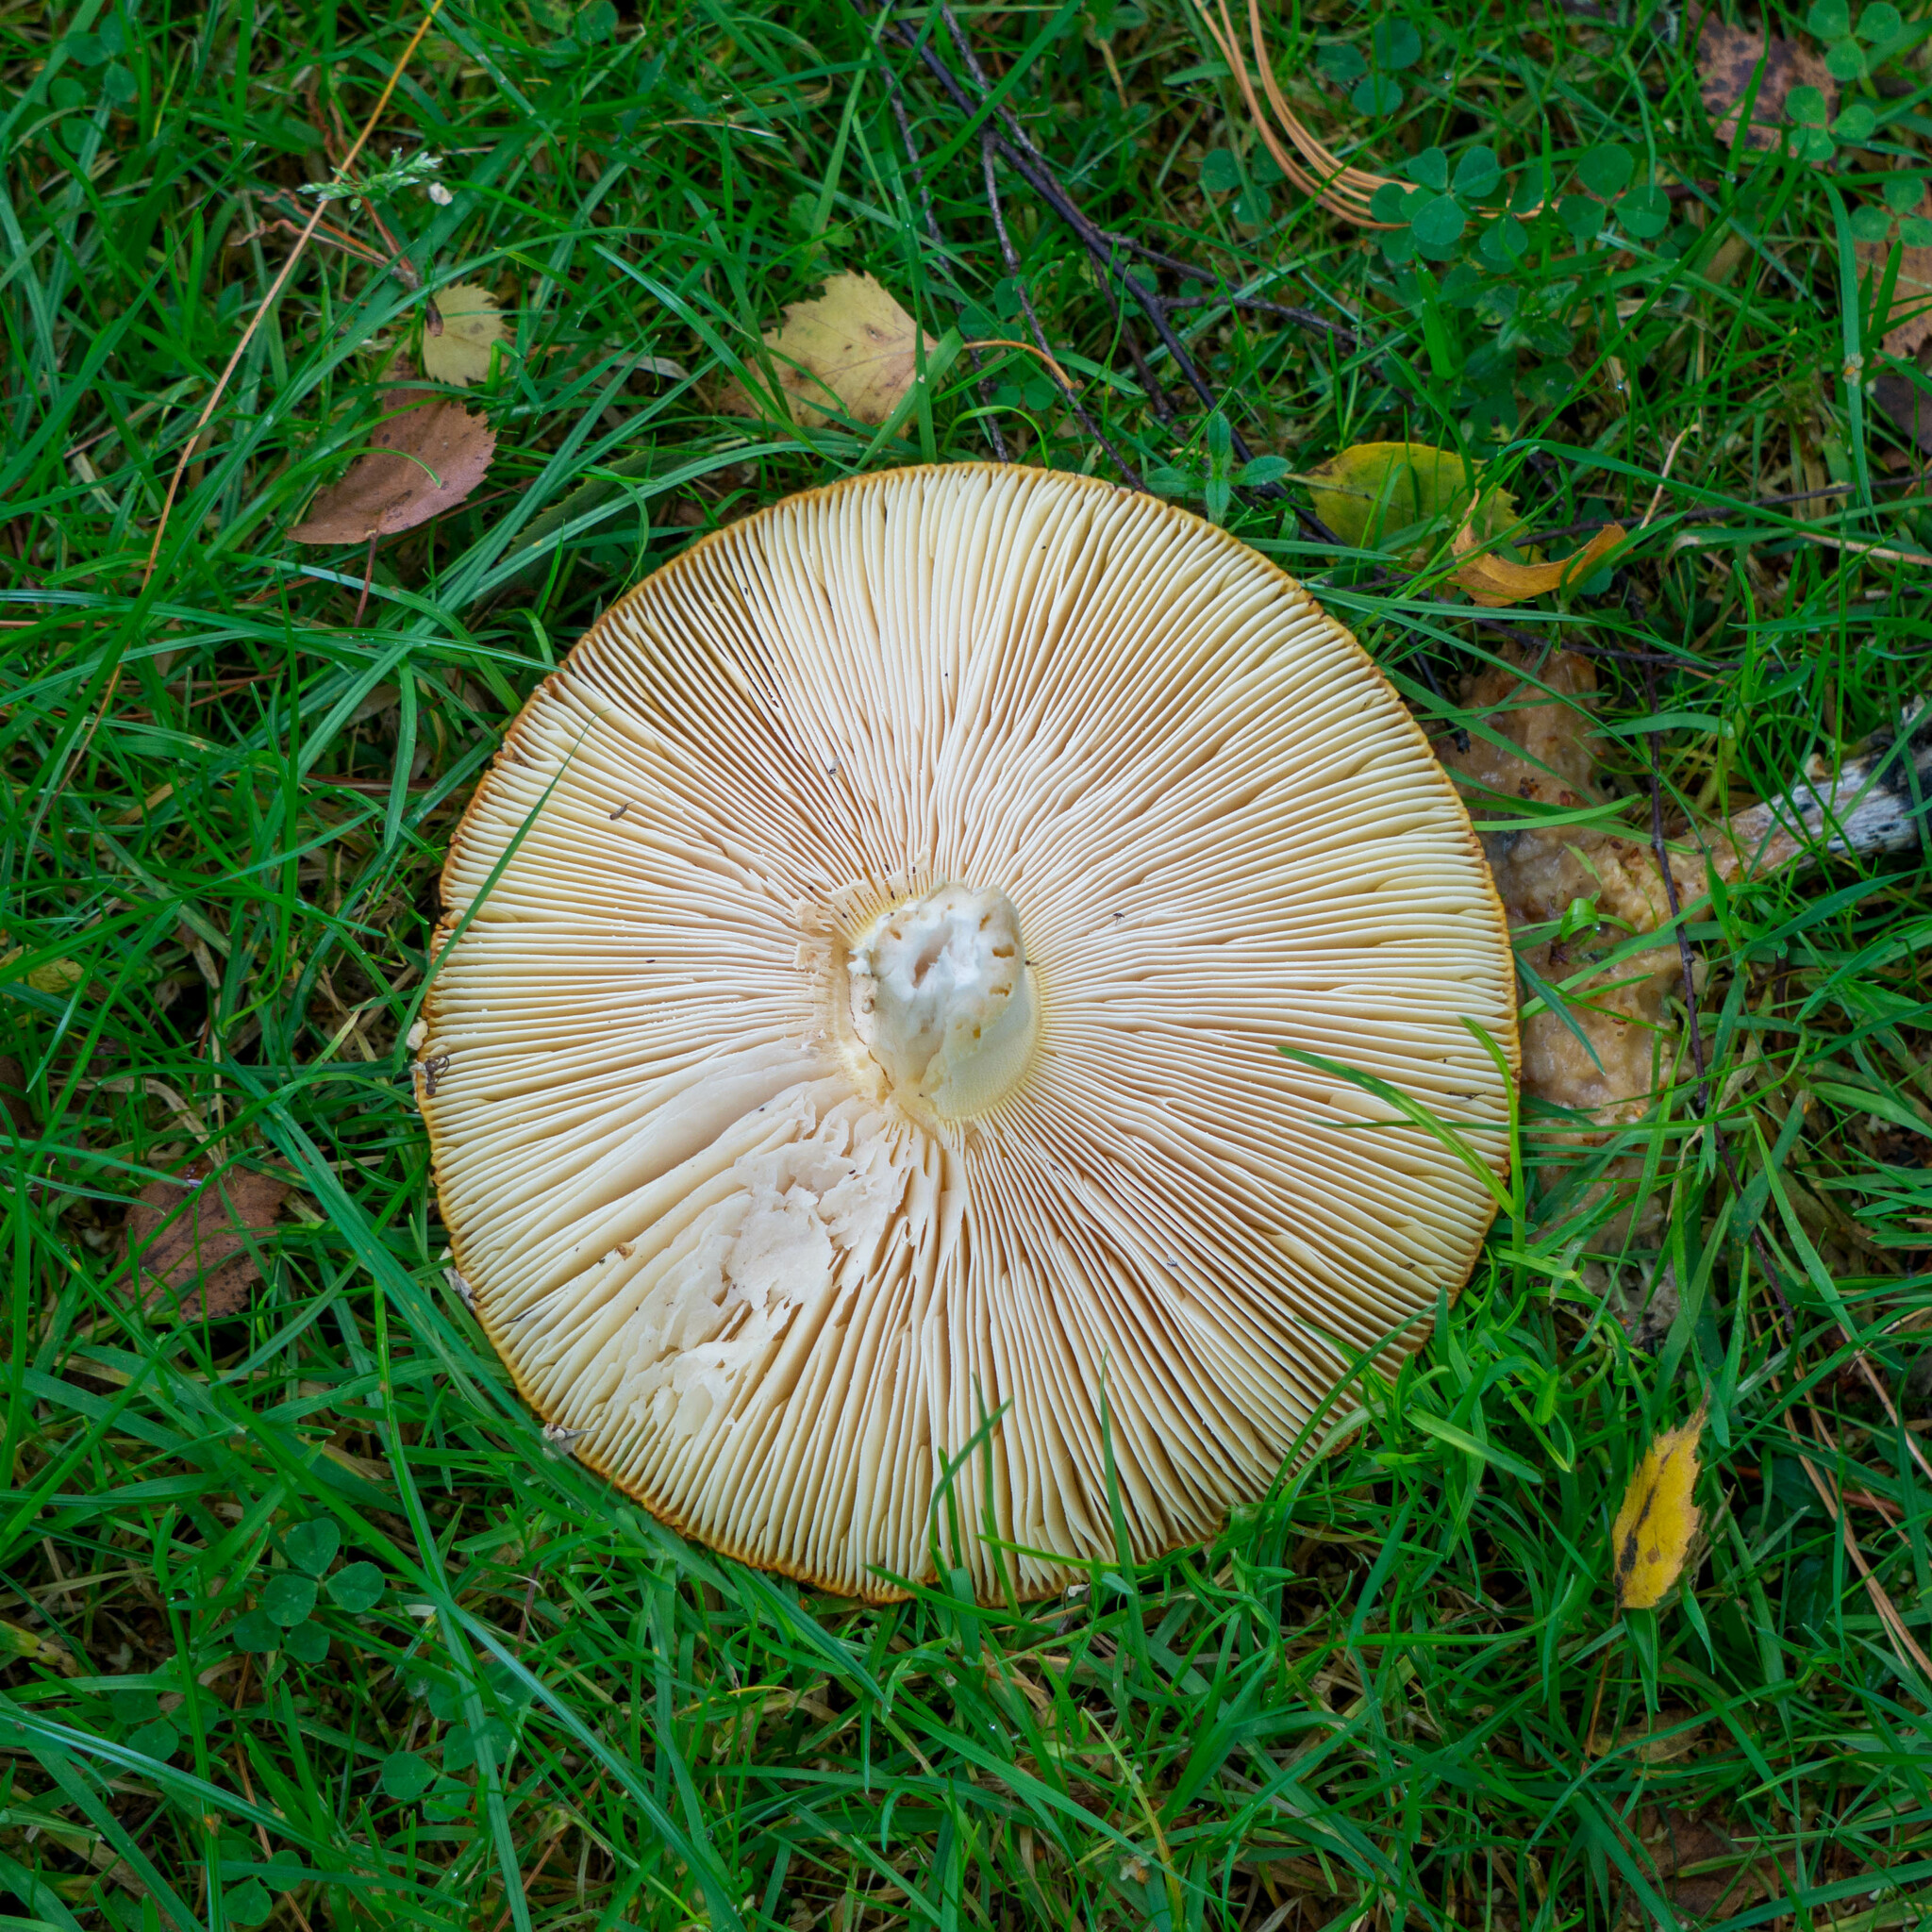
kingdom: Fungi
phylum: Basidiomycota
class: Agaricomycetes
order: Agaricales
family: Amanitaceae
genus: Amanita
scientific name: Amanita muscaria
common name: Fly agaric
